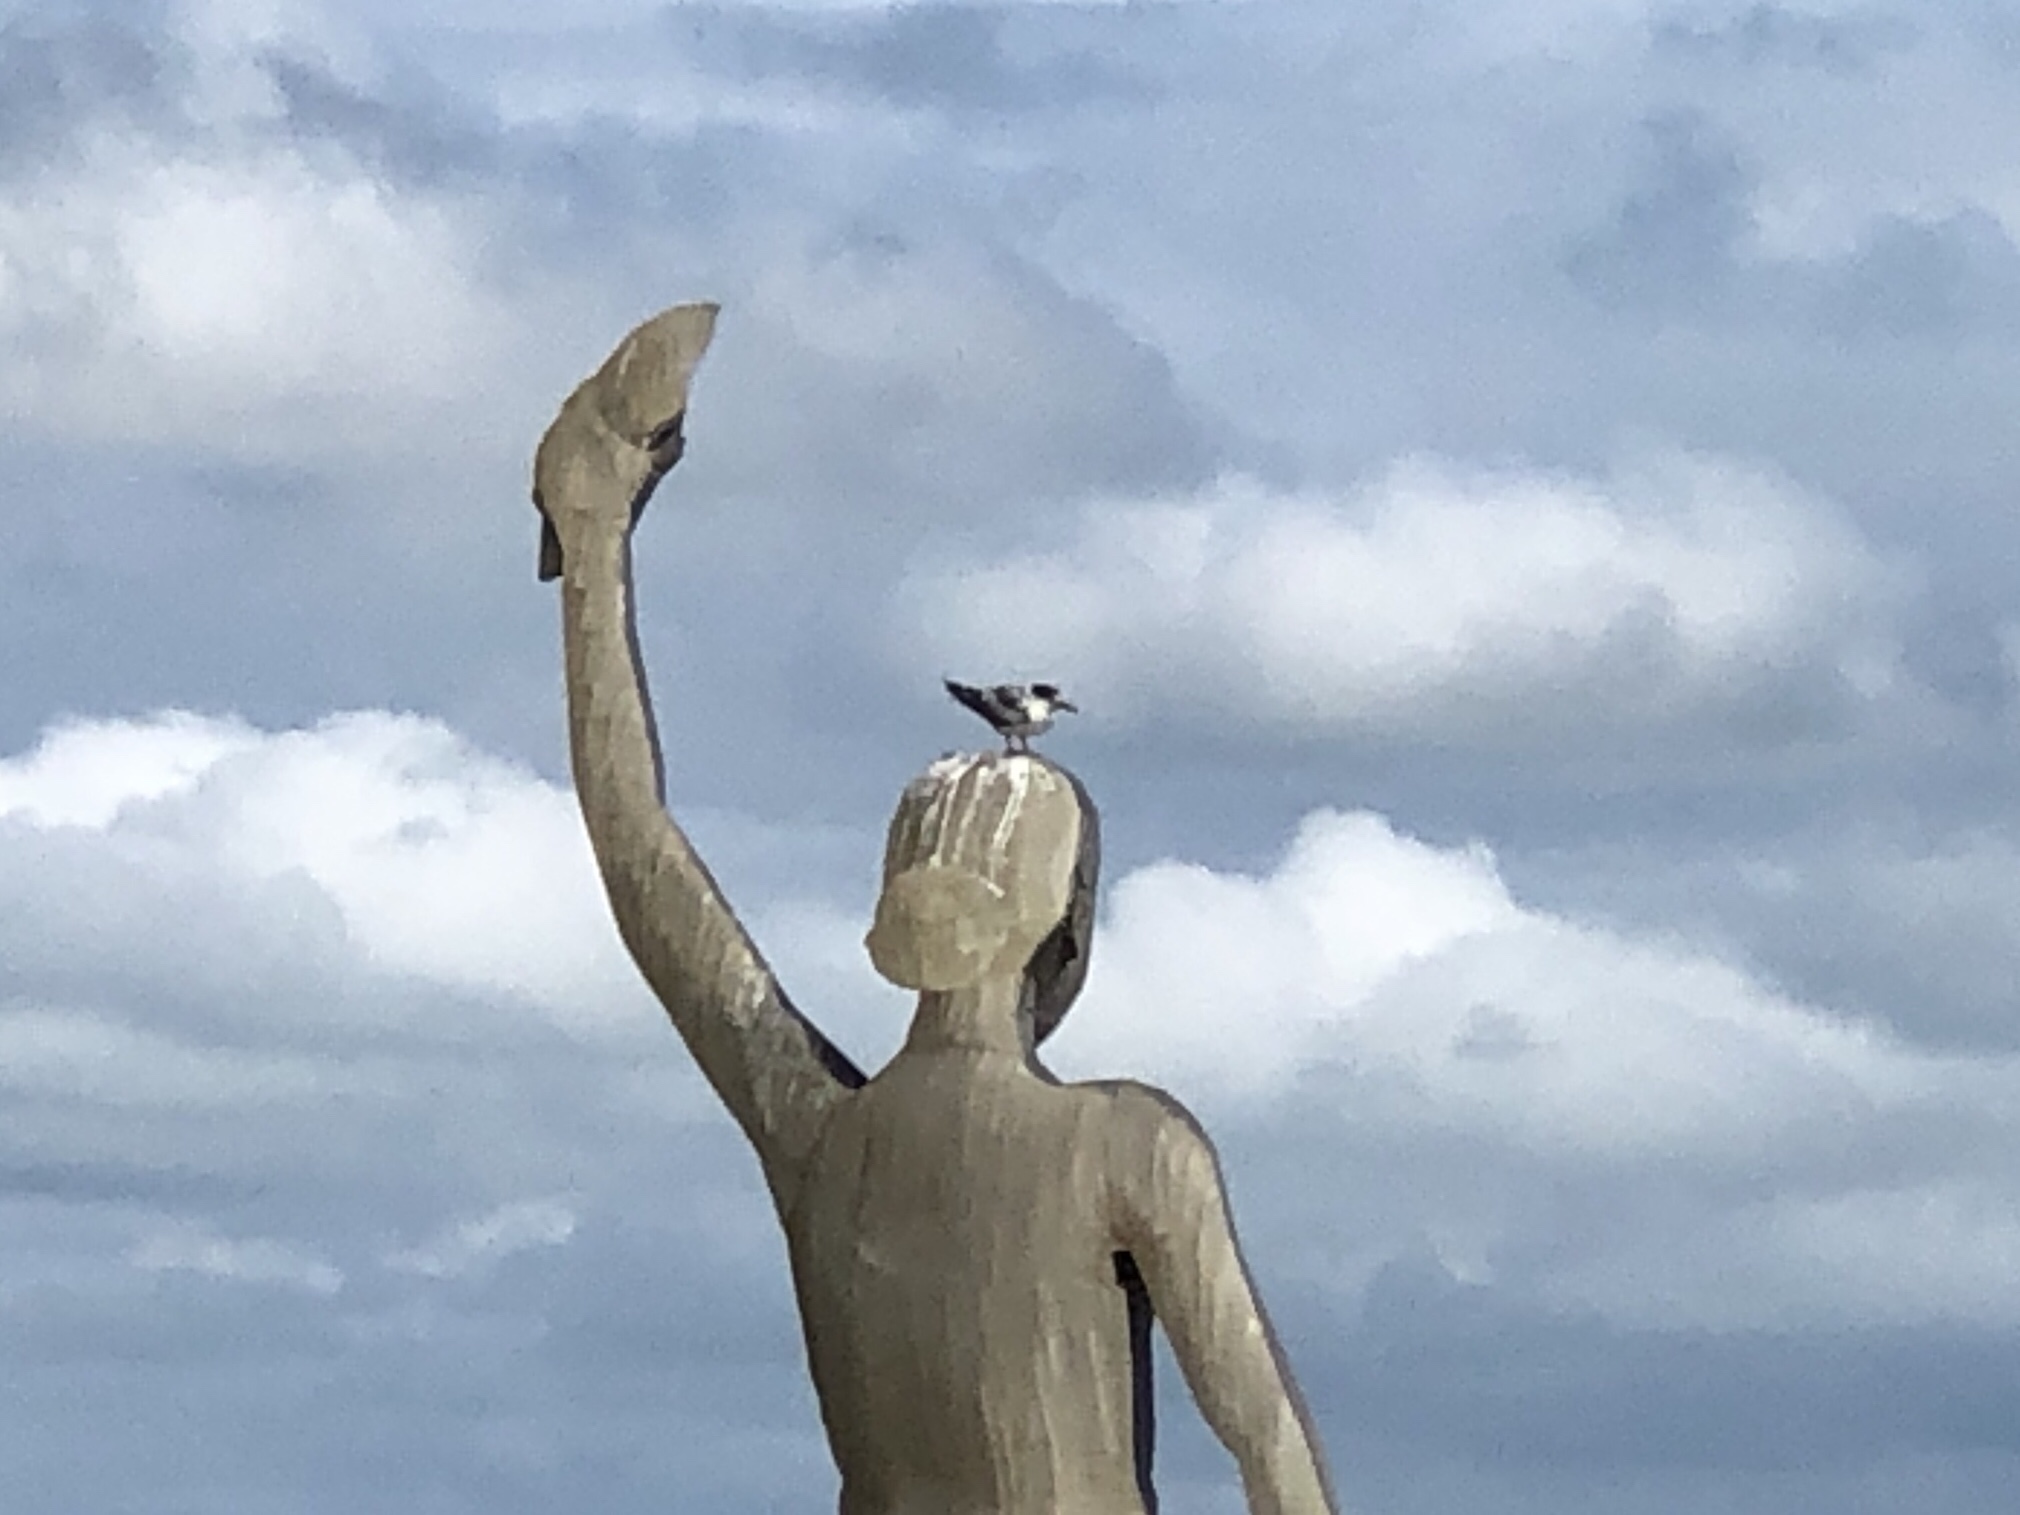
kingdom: Animalia
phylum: Chordata
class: Aves
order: Charadriiformes
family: Laridae
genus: Thalasseus
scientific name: Thalasseus bergii
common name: Greater crested tern
